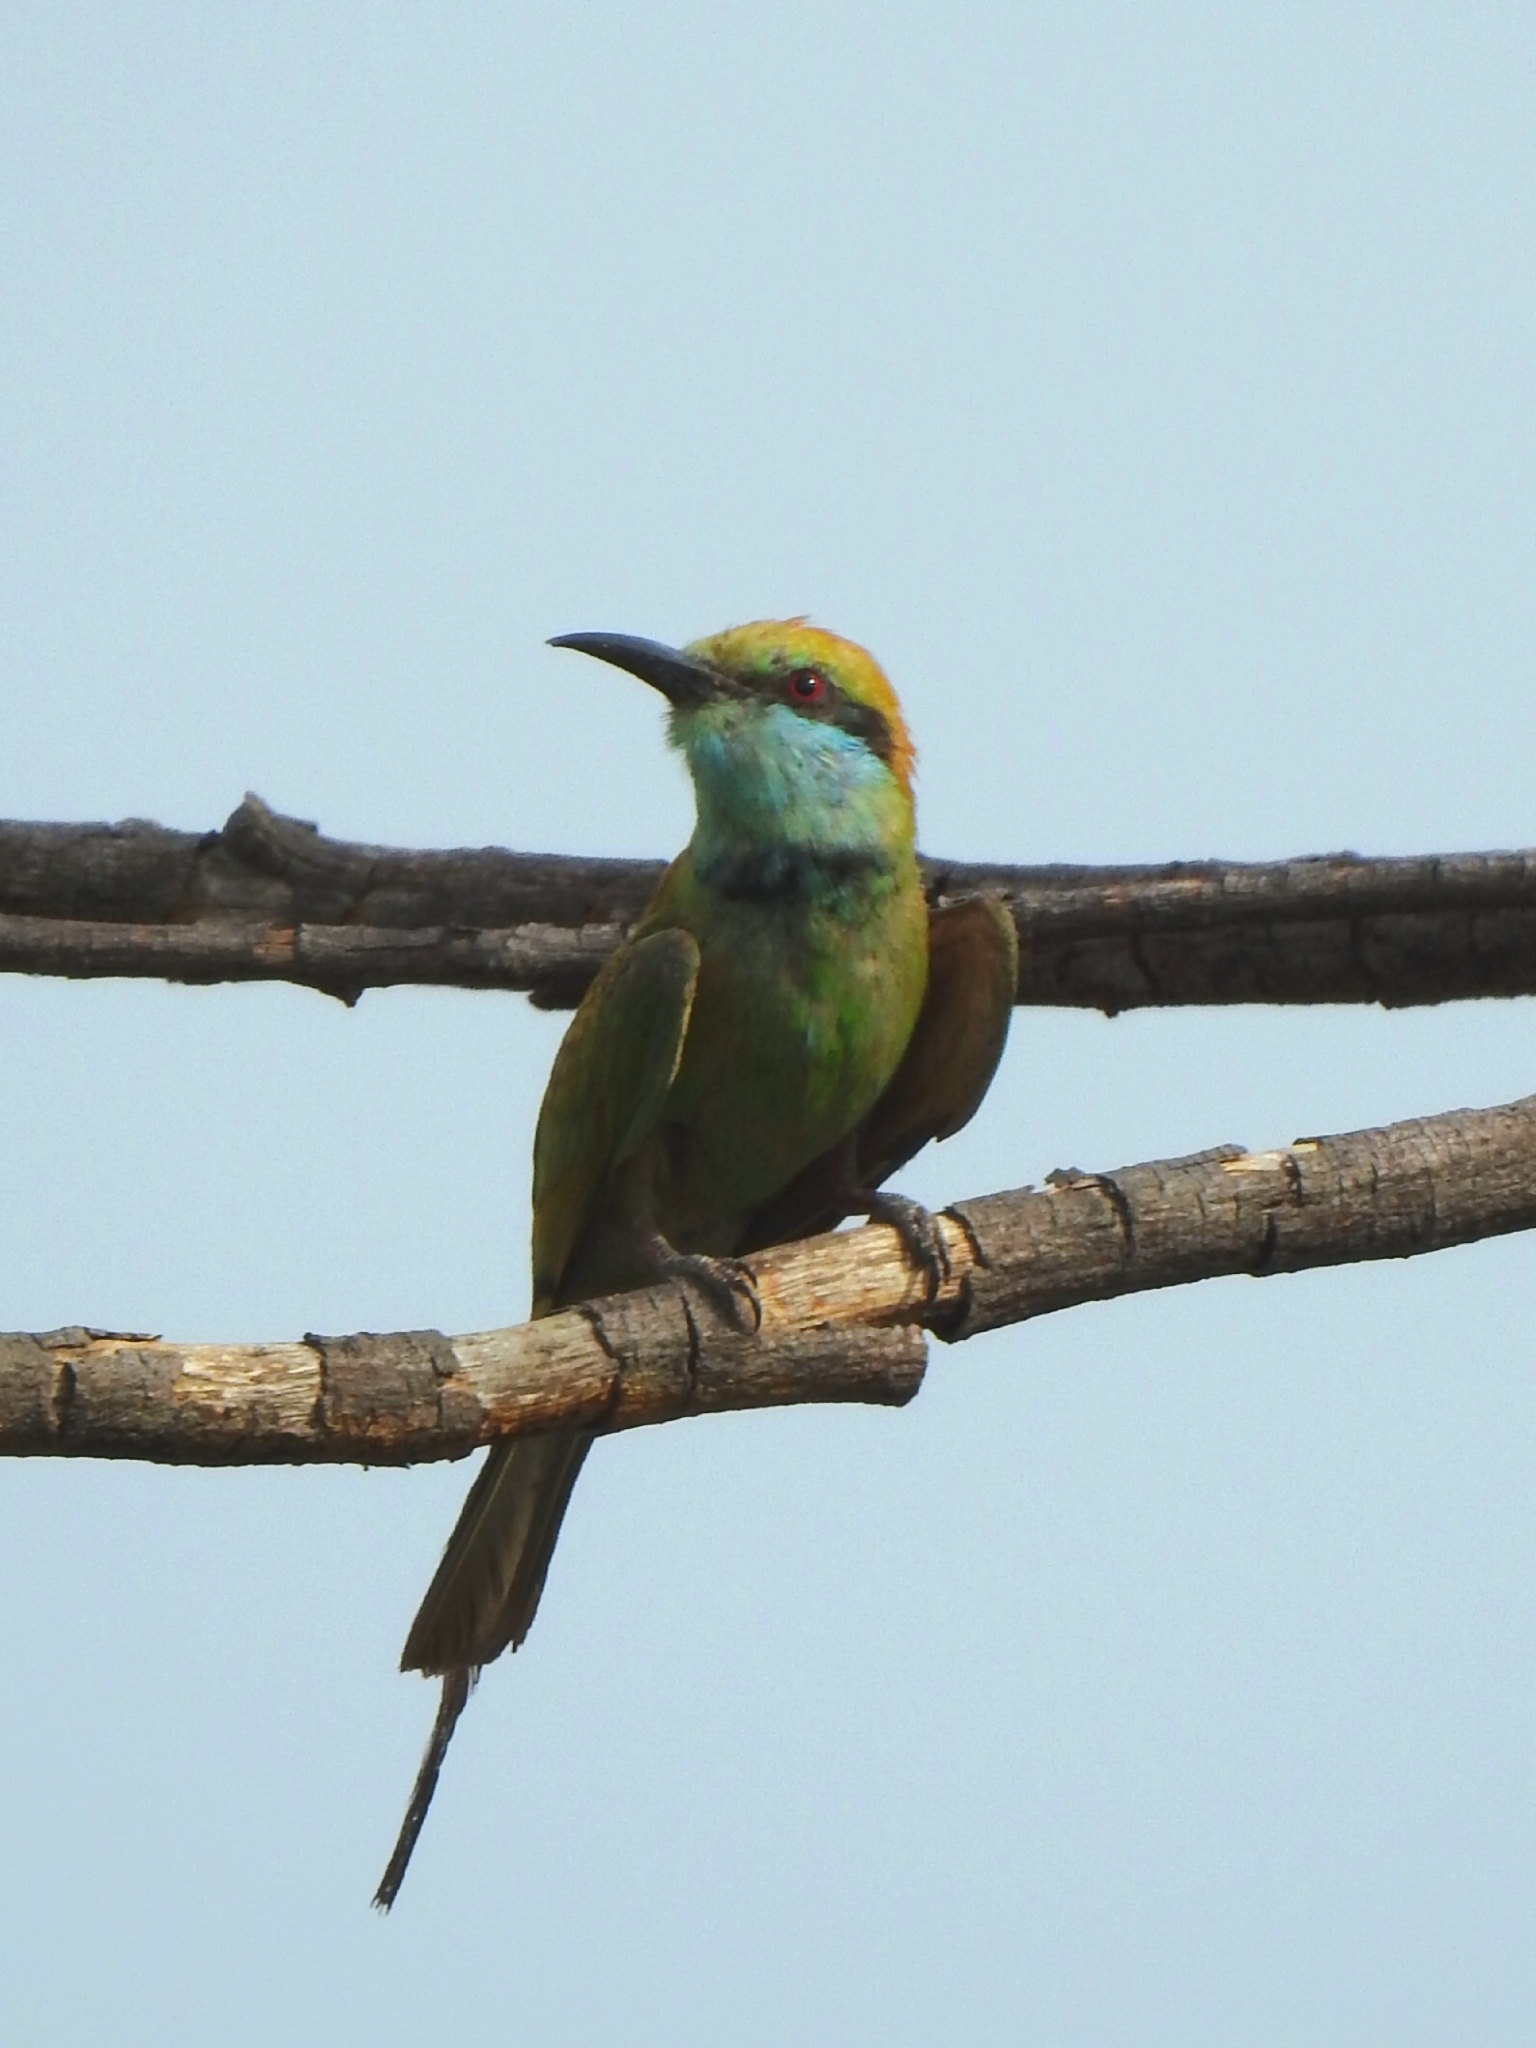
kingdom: Animalia
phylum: Chordata
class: Aves
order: Coraciiformes
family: Meropidae
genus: Merops
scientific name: Merops orientalis
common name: Green bee-eater
